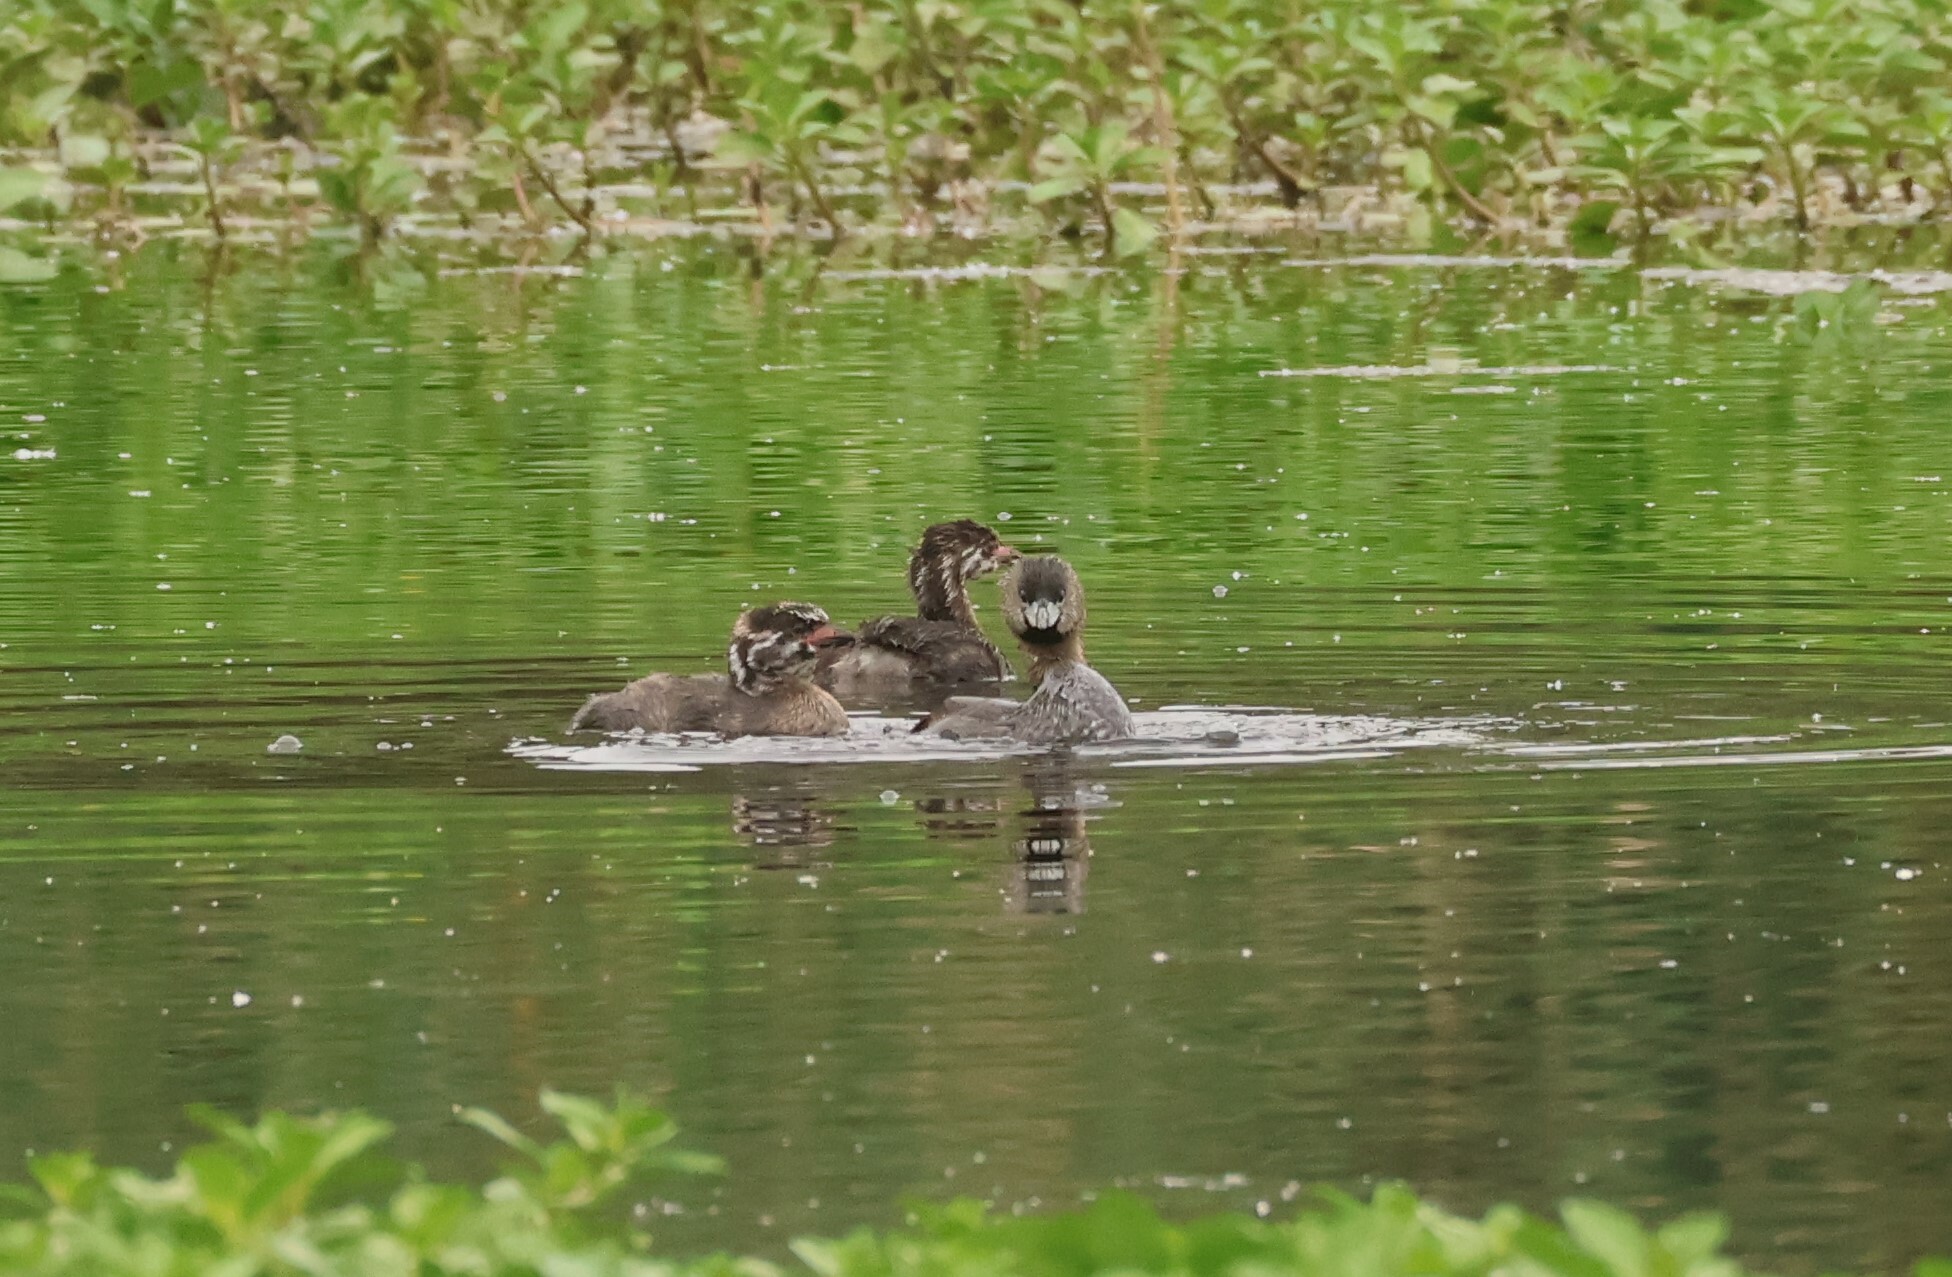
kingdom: Animalia
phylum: Chordata
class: Aves
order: Podicipediformes
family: Podicipedidae
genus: Podilymbus
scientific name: Podilymbus podiceps
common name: Pied-billed grebe
